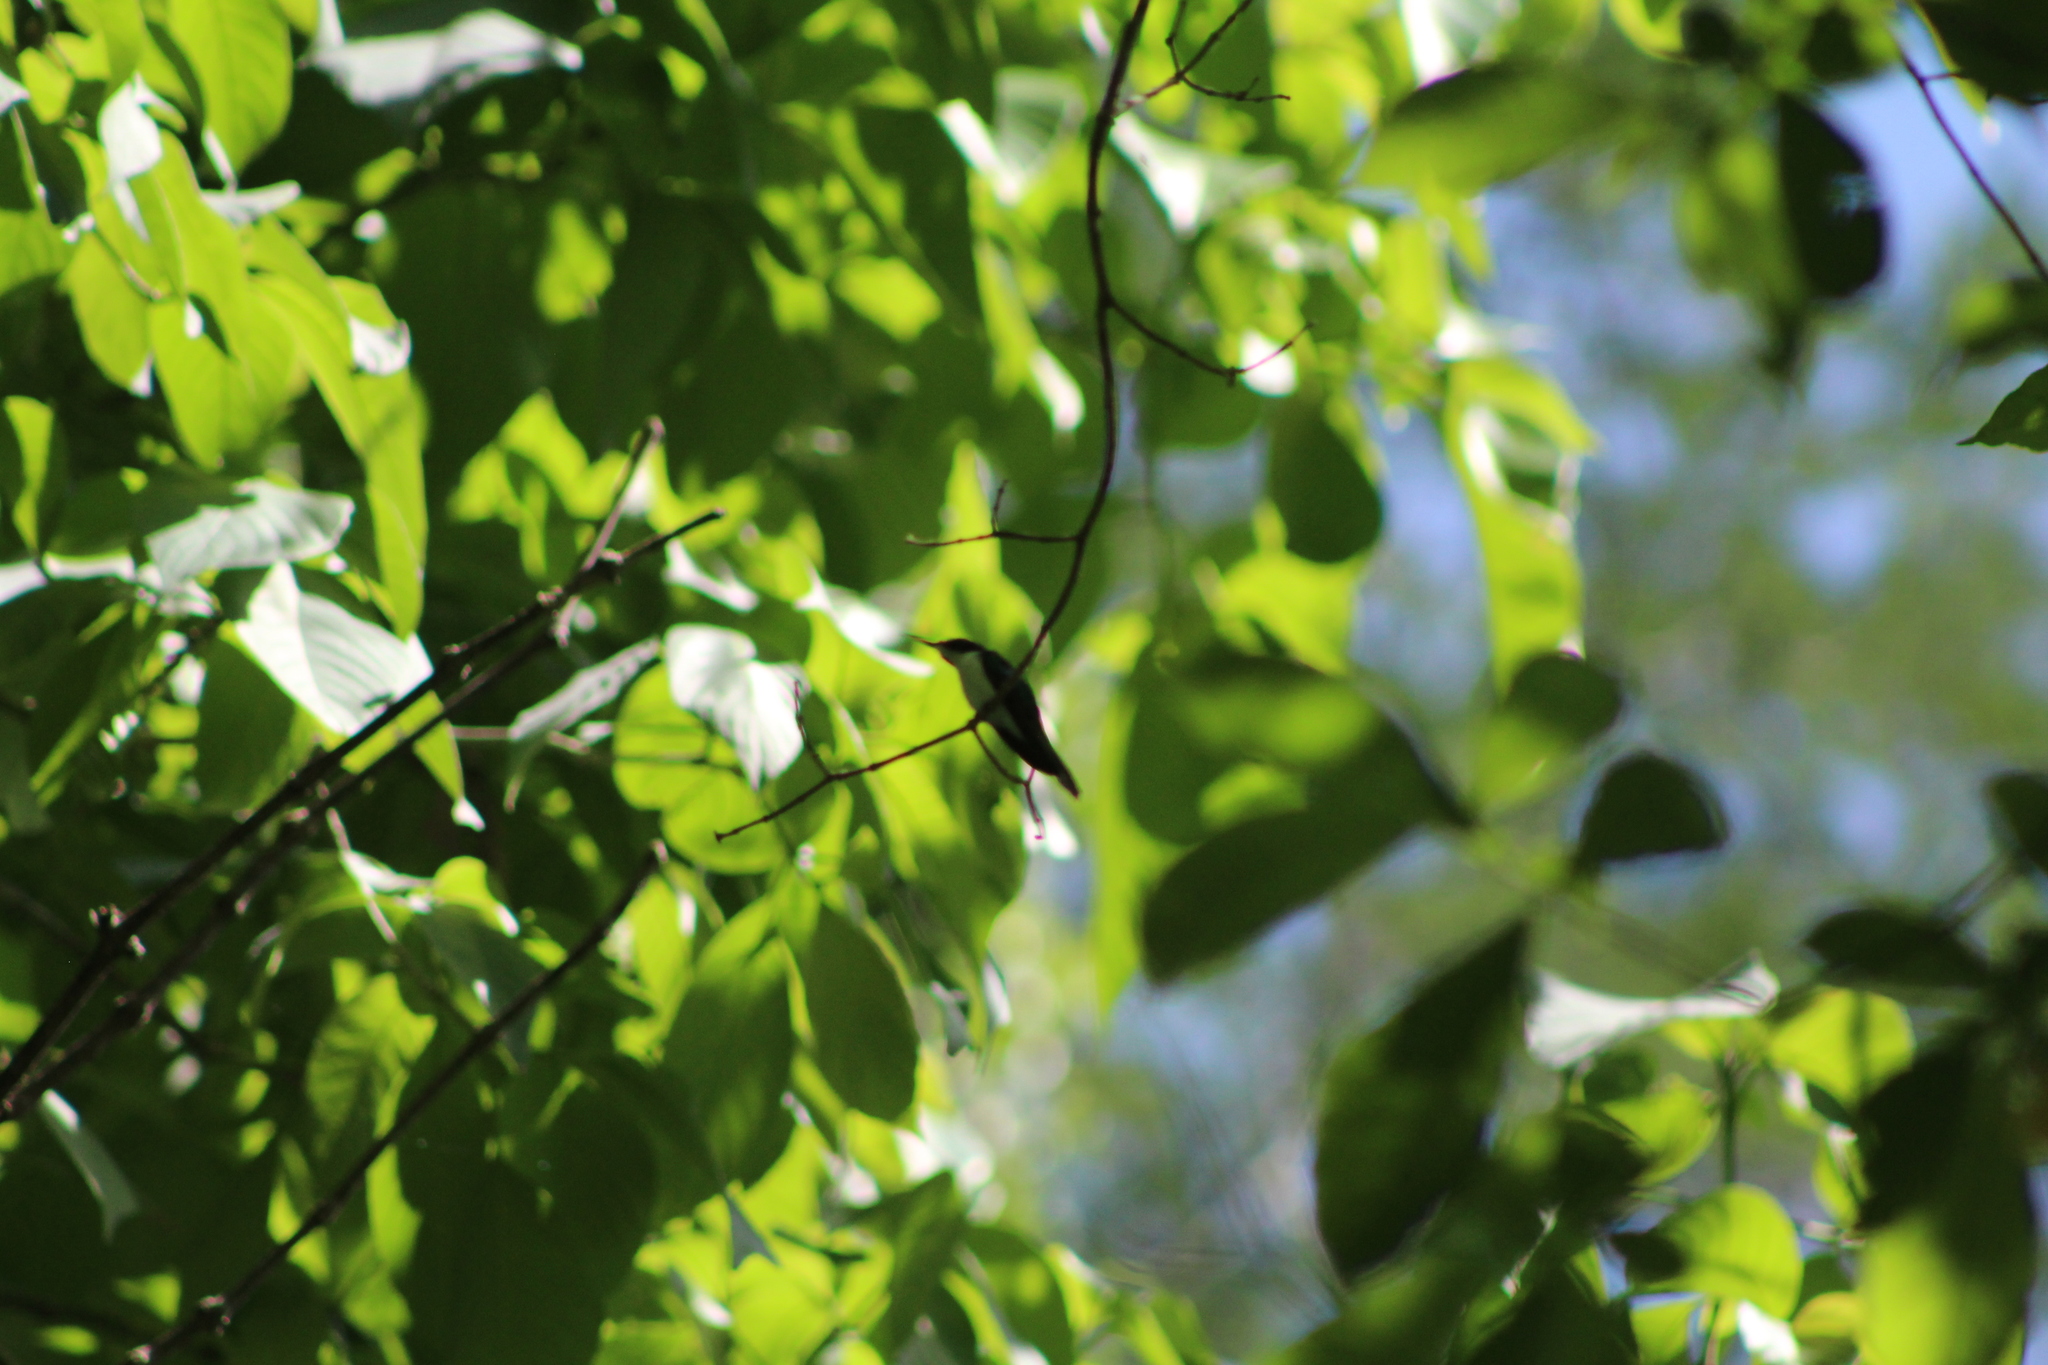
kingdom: Animalia
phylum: Chordata
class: Aves
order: Apodiformes
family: Trochilidae
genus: Heliothryx
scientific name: Heliothryx barroti
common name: Purple-crowned fairy
